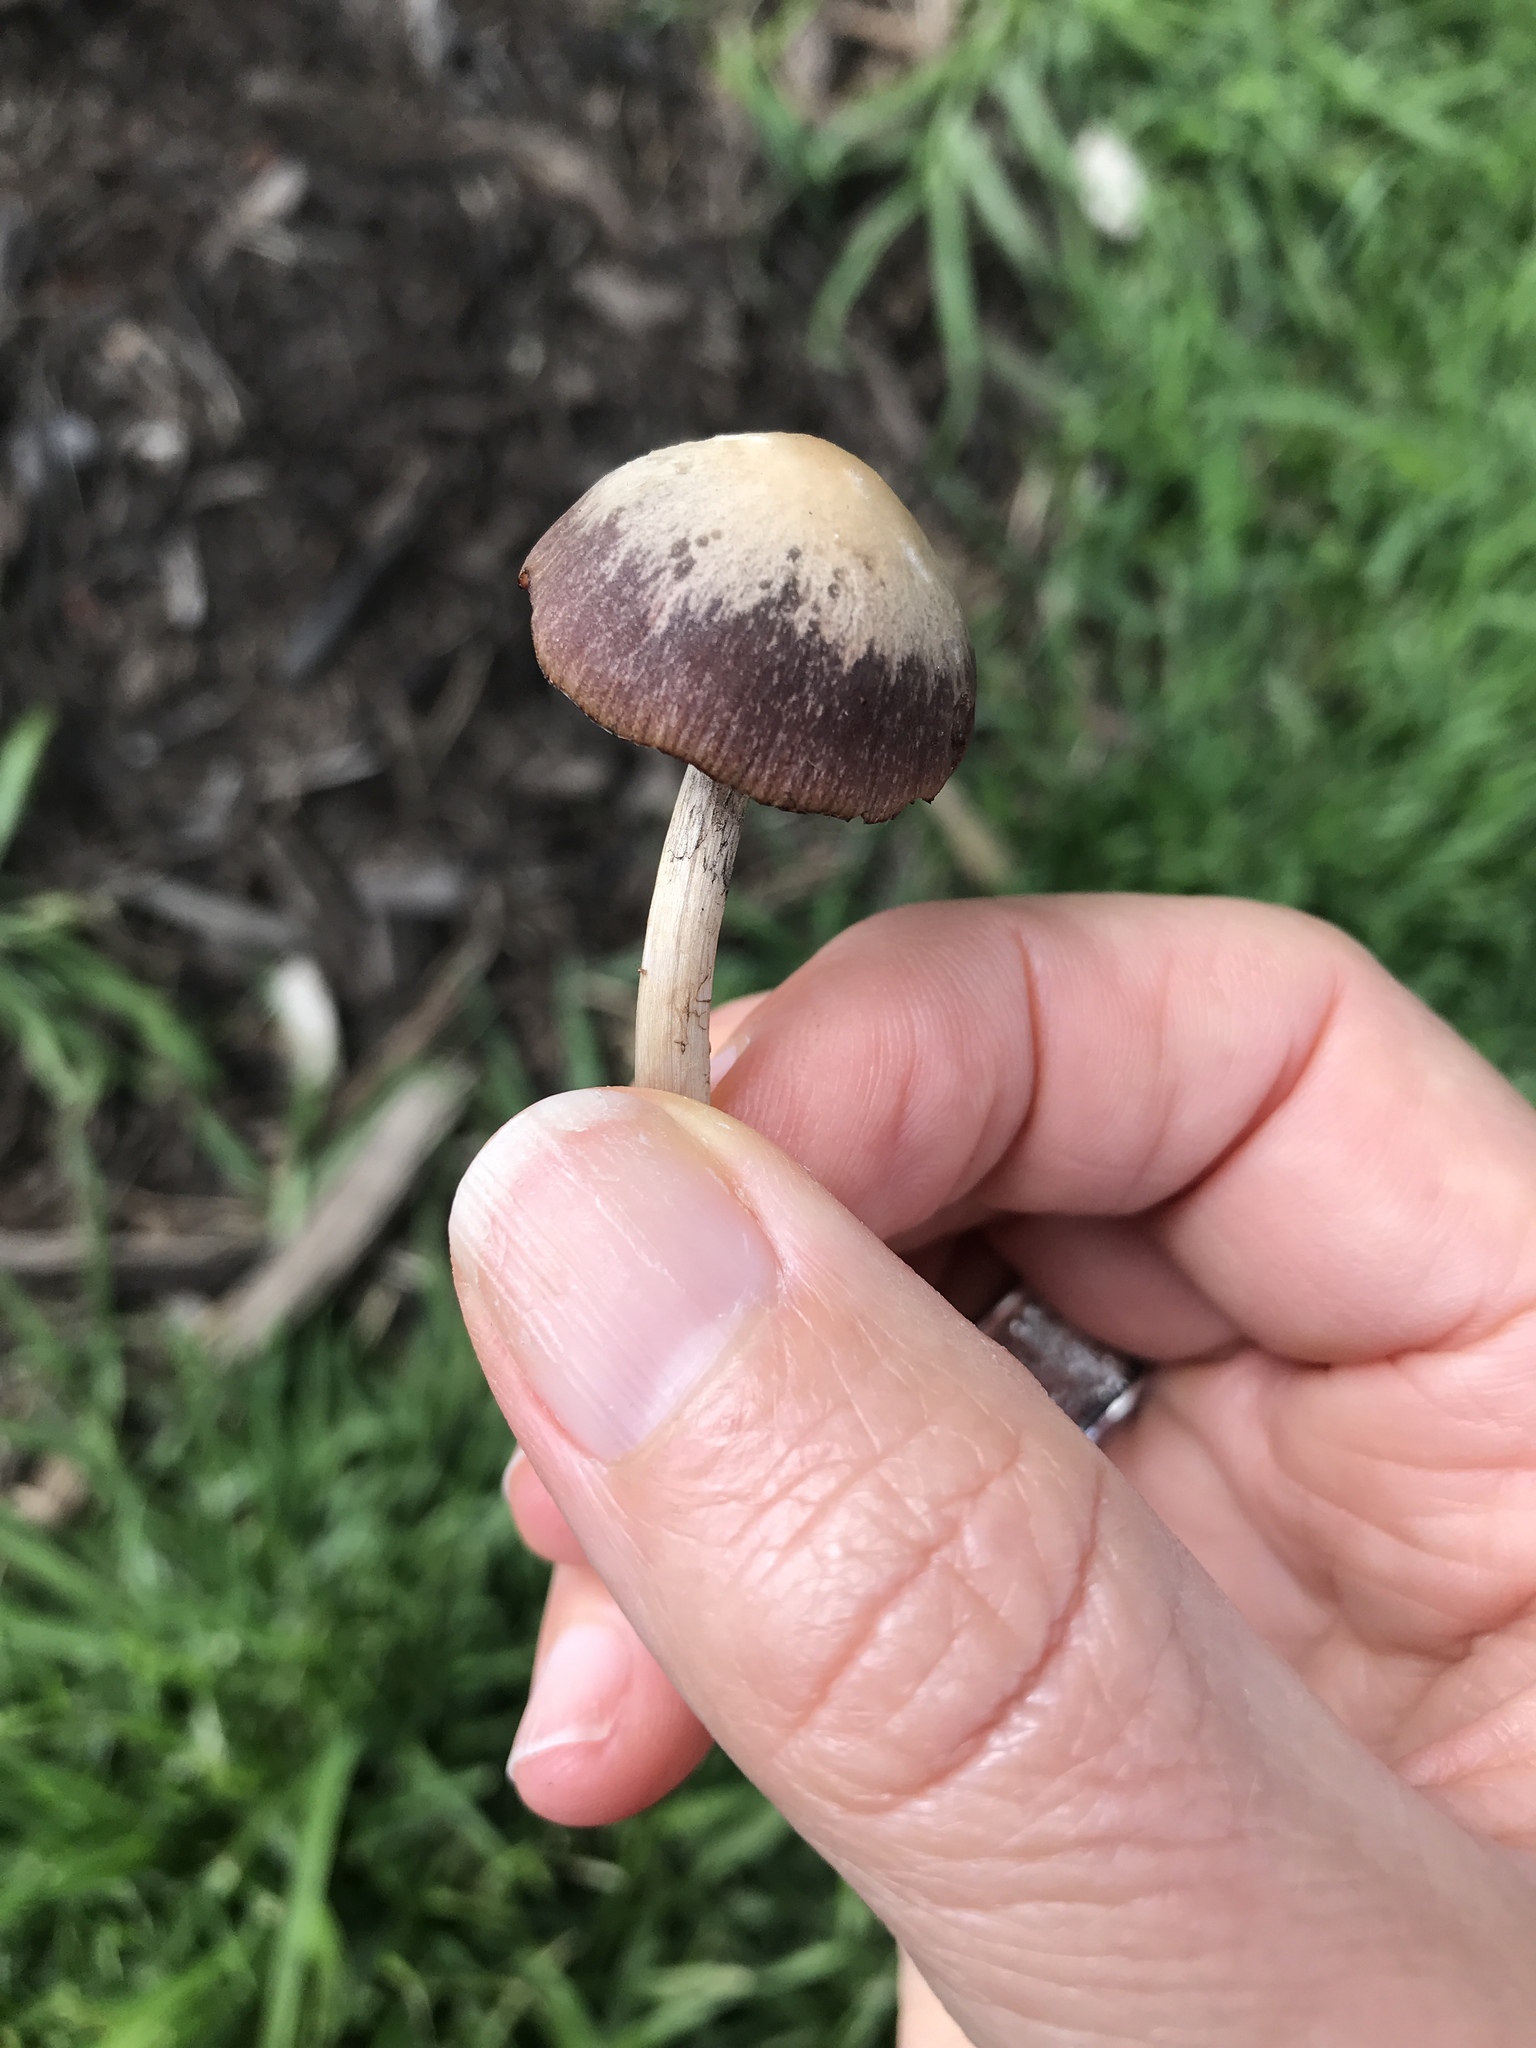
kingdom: Fungi
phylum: Basidiomycota
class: Agaricomycetes
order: Agaricales
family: Bolbitiaceae
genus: Panaeolina
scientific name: Panaeolina foenisecii
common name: Brown hay cap
